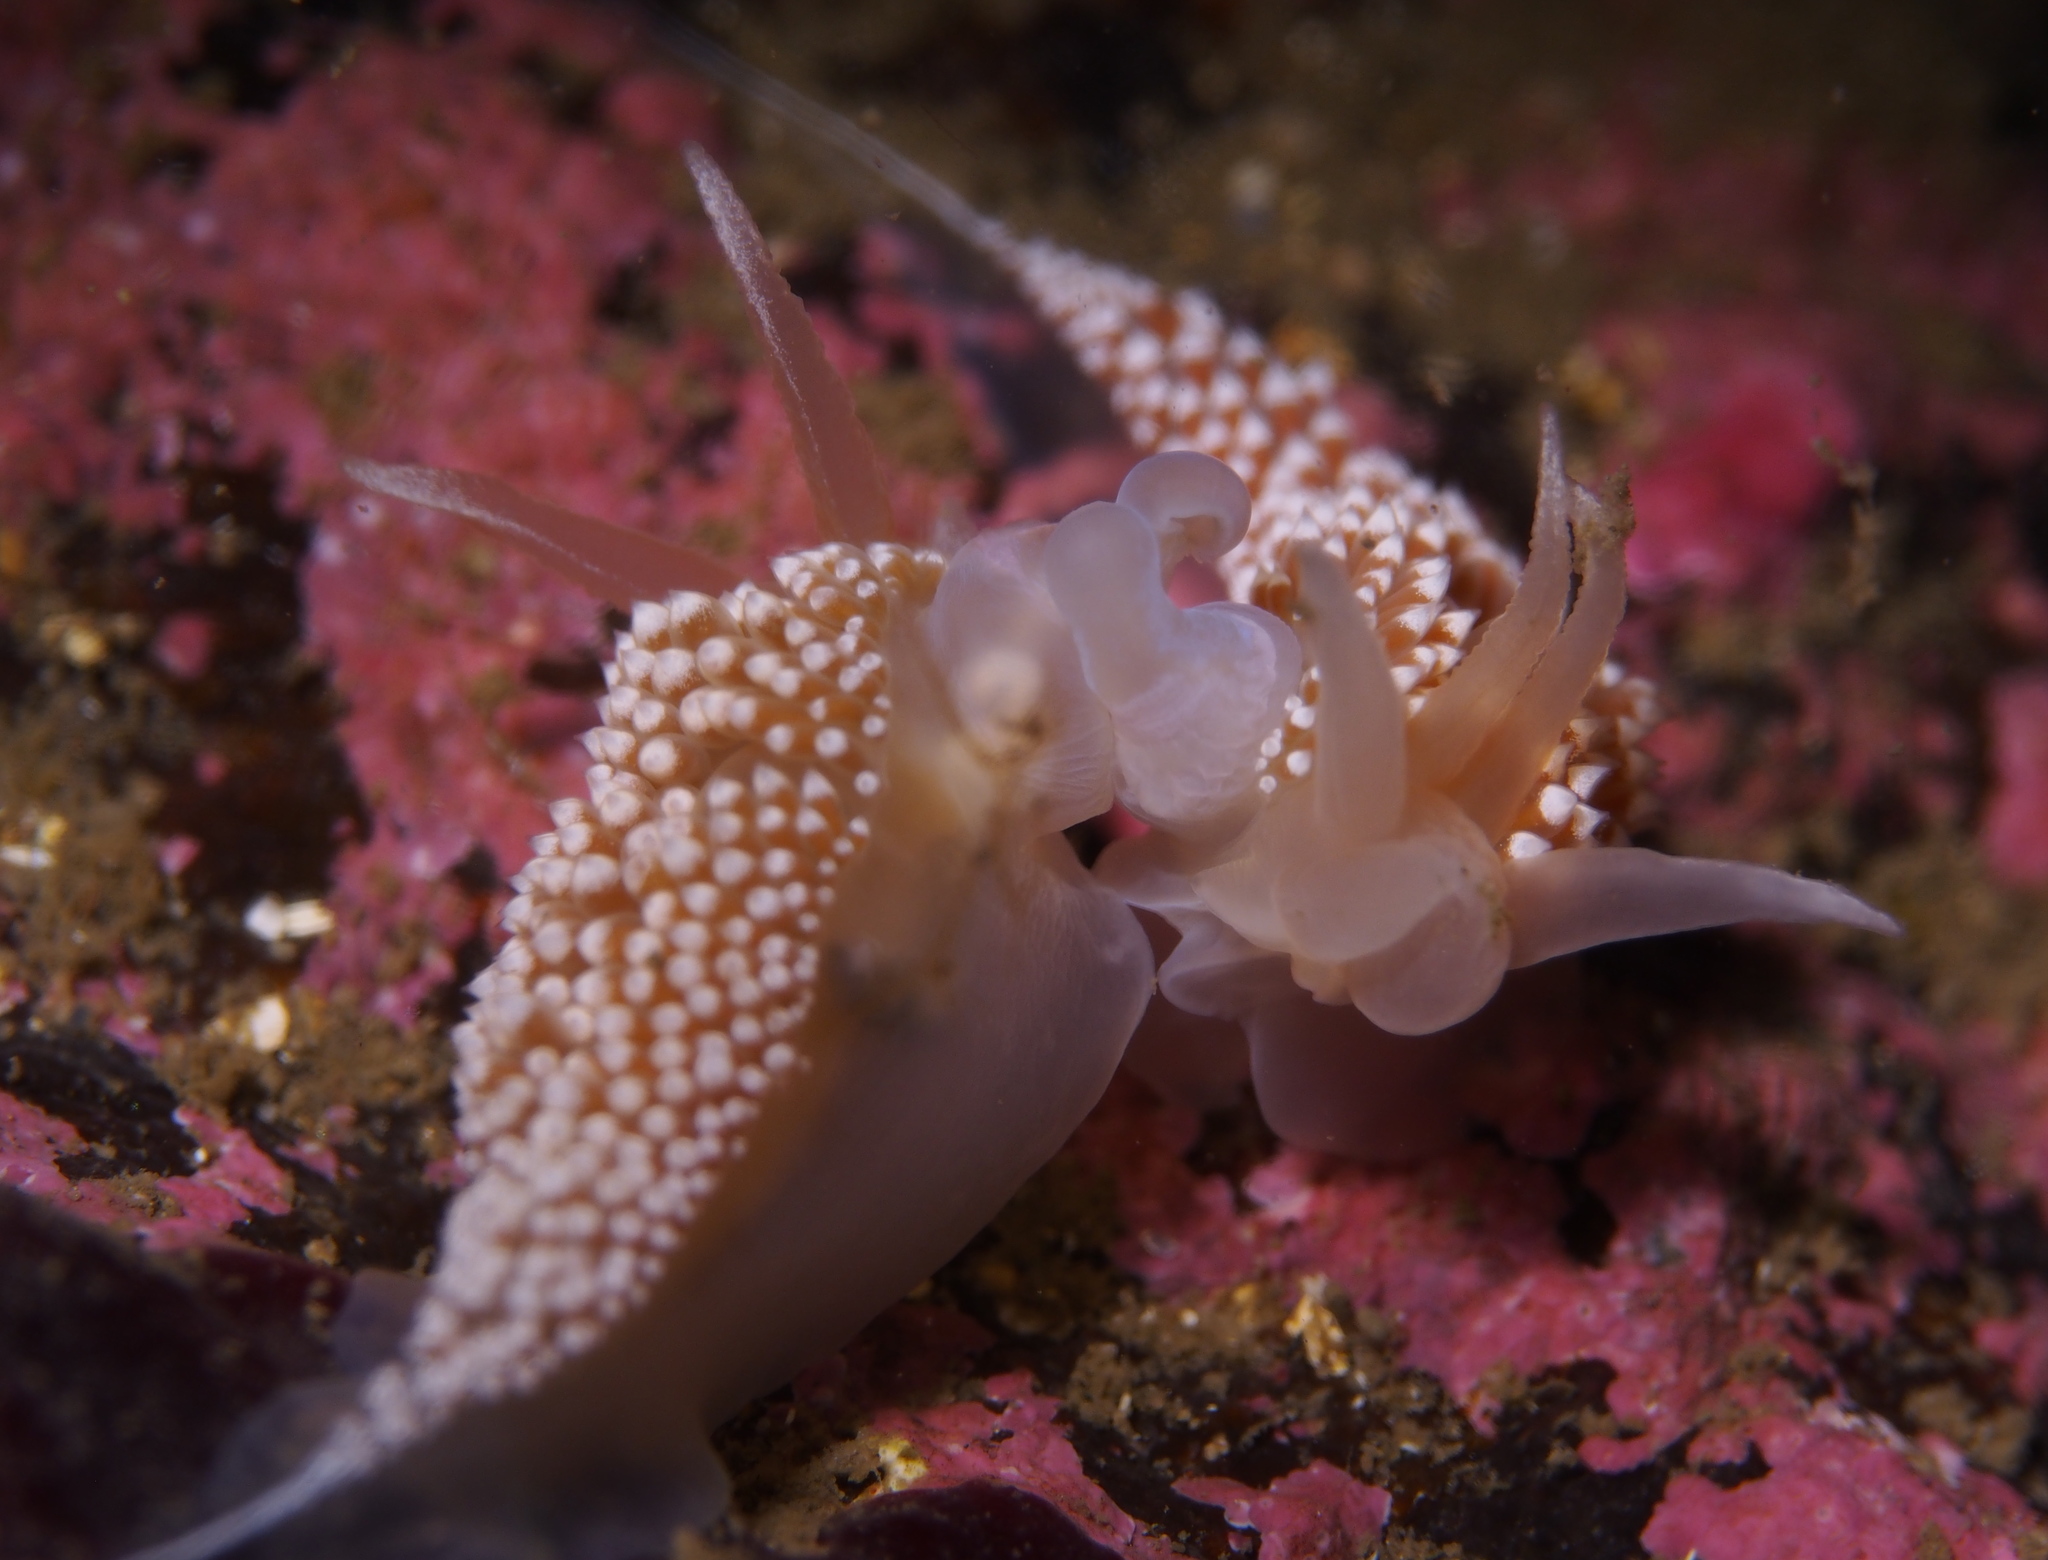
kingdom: Animalia
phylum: Mollusca
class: Gastropoda
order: Nudibranchia
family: Coryphellidae
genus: Coryphella
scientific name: Coryphella verrucosa
